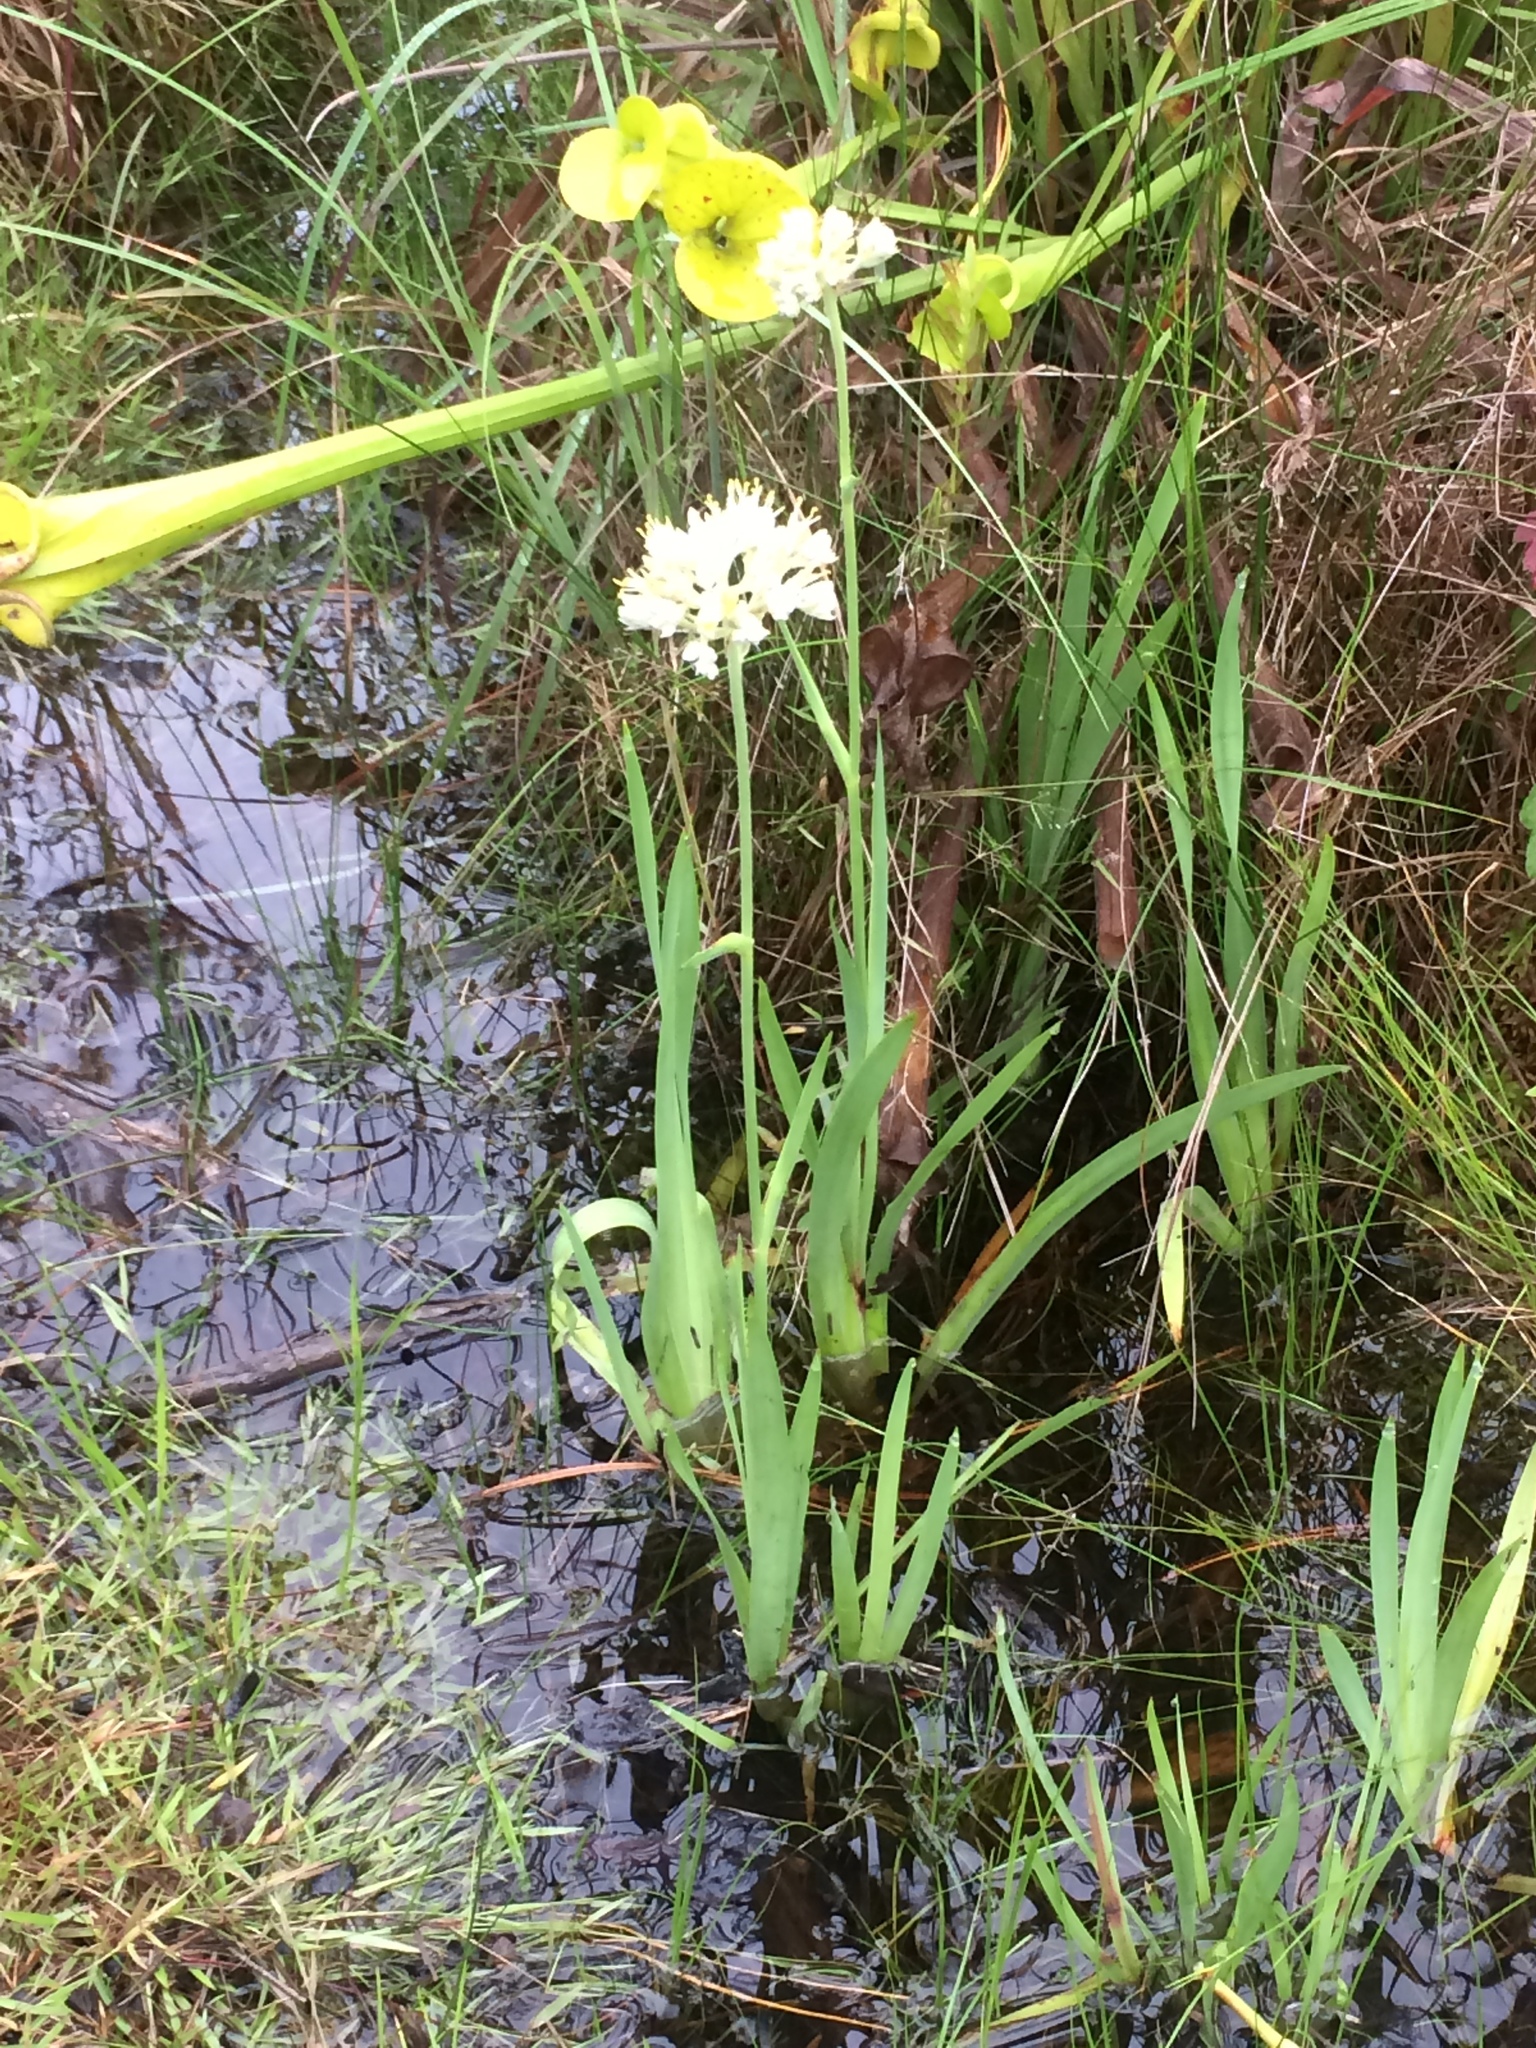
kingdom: Plantae
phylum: Tracheophyta
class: Liliopsida
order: Commelinales
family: Haemodoraceae
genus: Lachnanthes
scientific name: Lachnanthes caroliana
